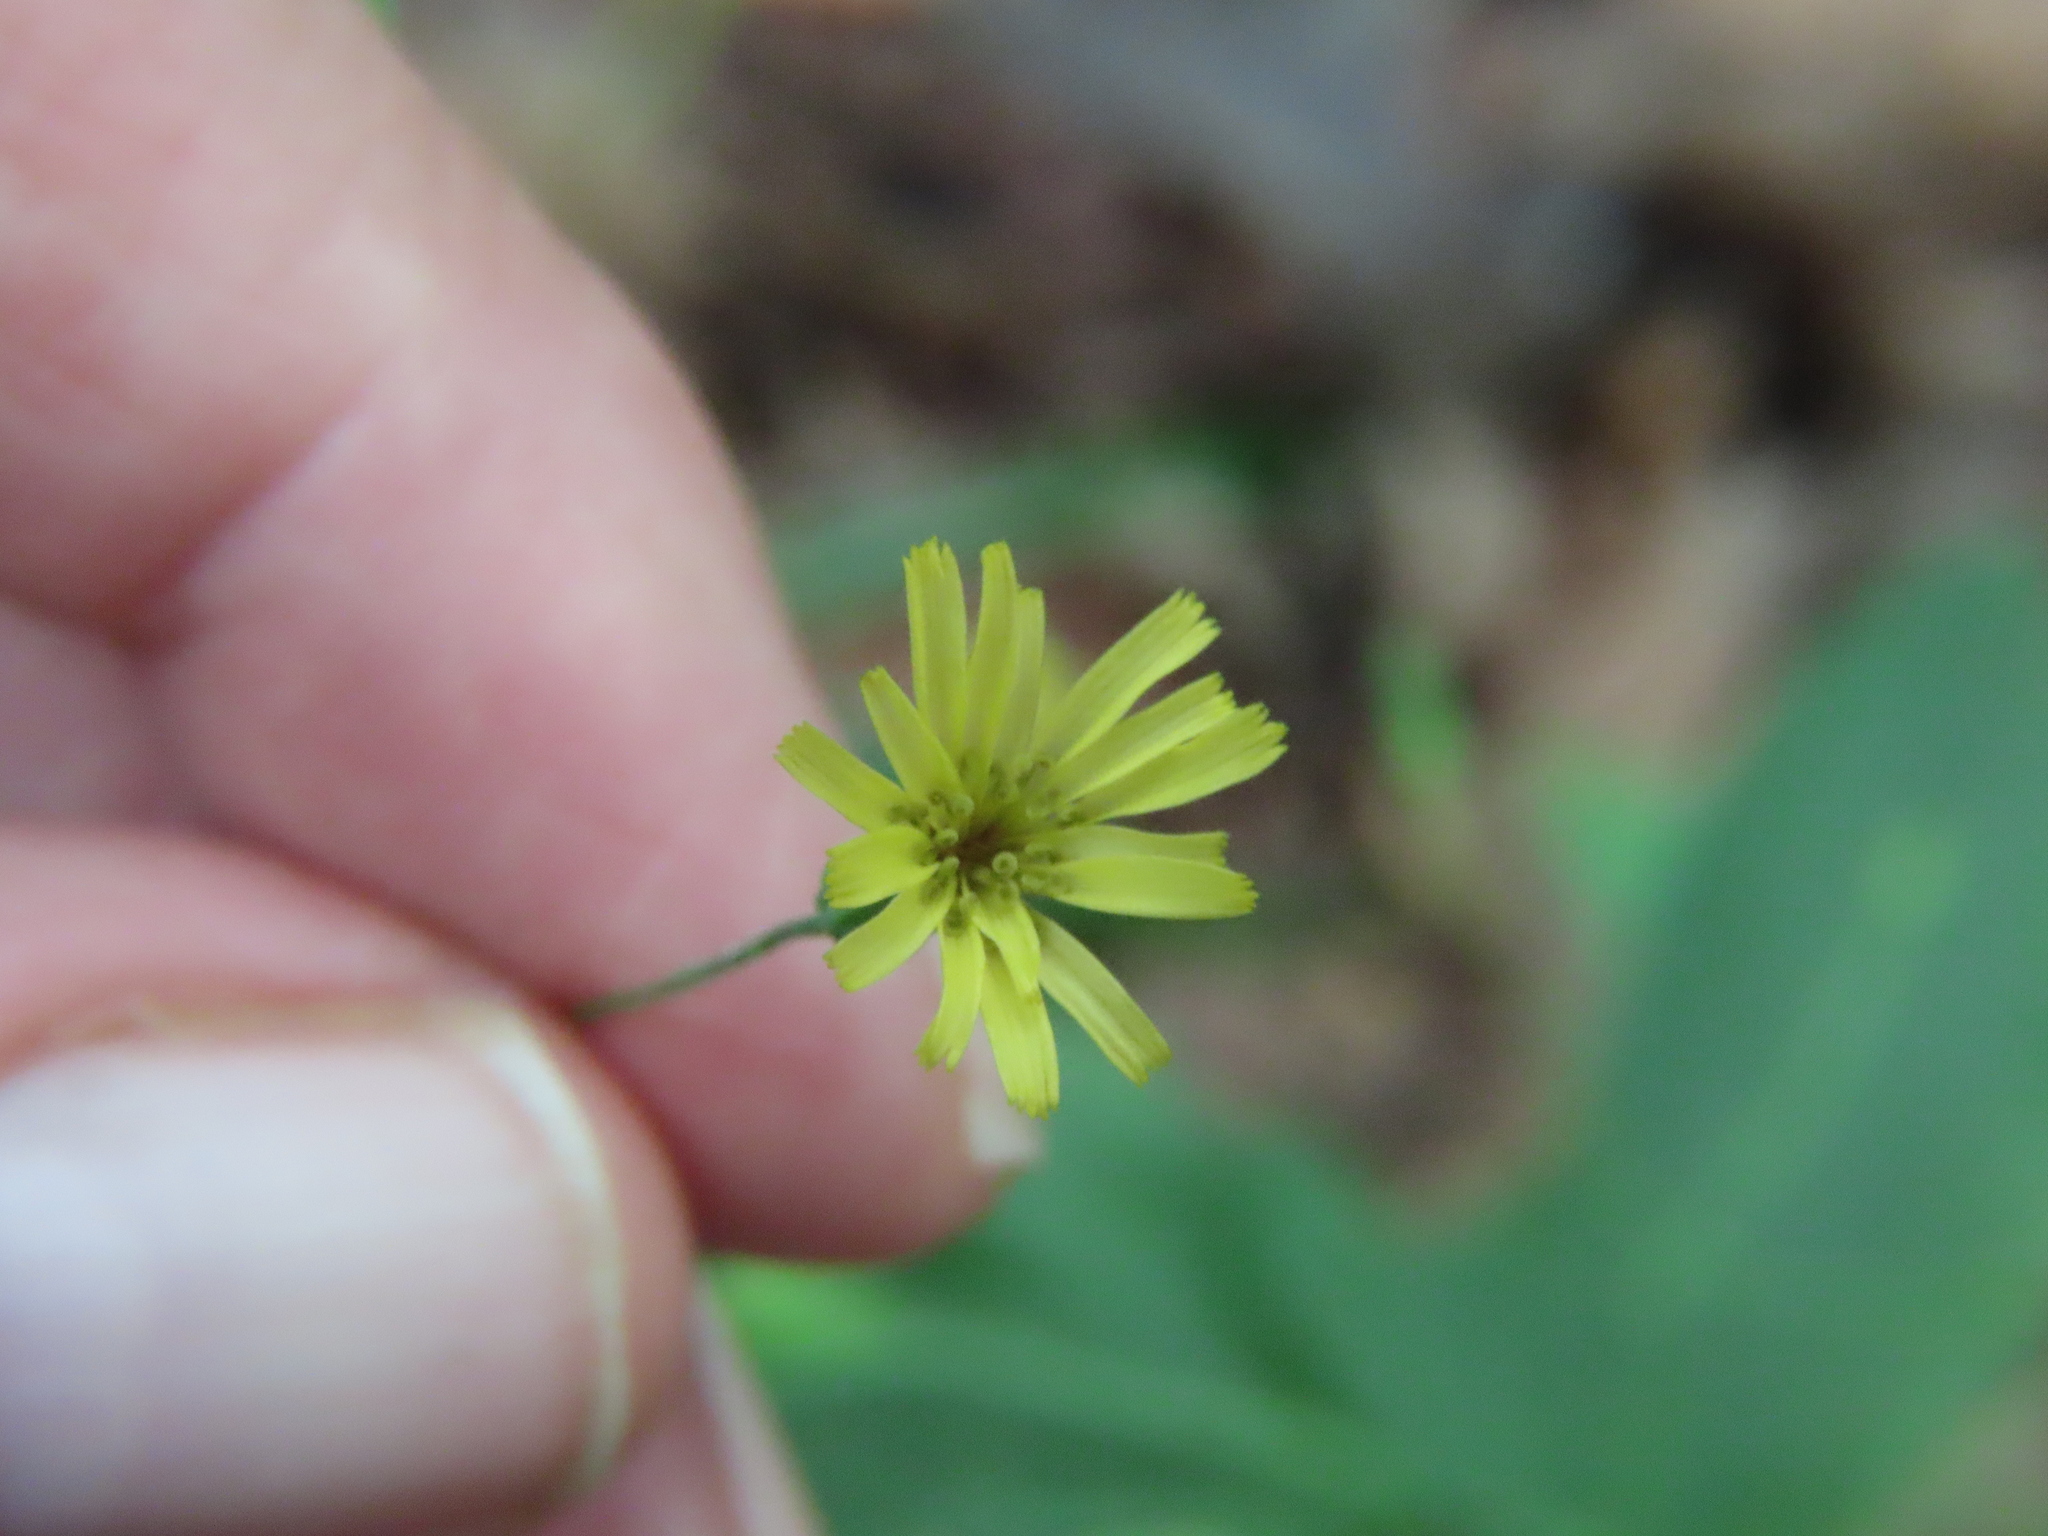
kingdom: Plantae
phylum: Tracheophyta
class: Magnoliopsida
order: Asterales
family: Asteraceae
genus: Hieracium
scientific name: Hieracium paniculatum
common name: Allegheny hawkweed
